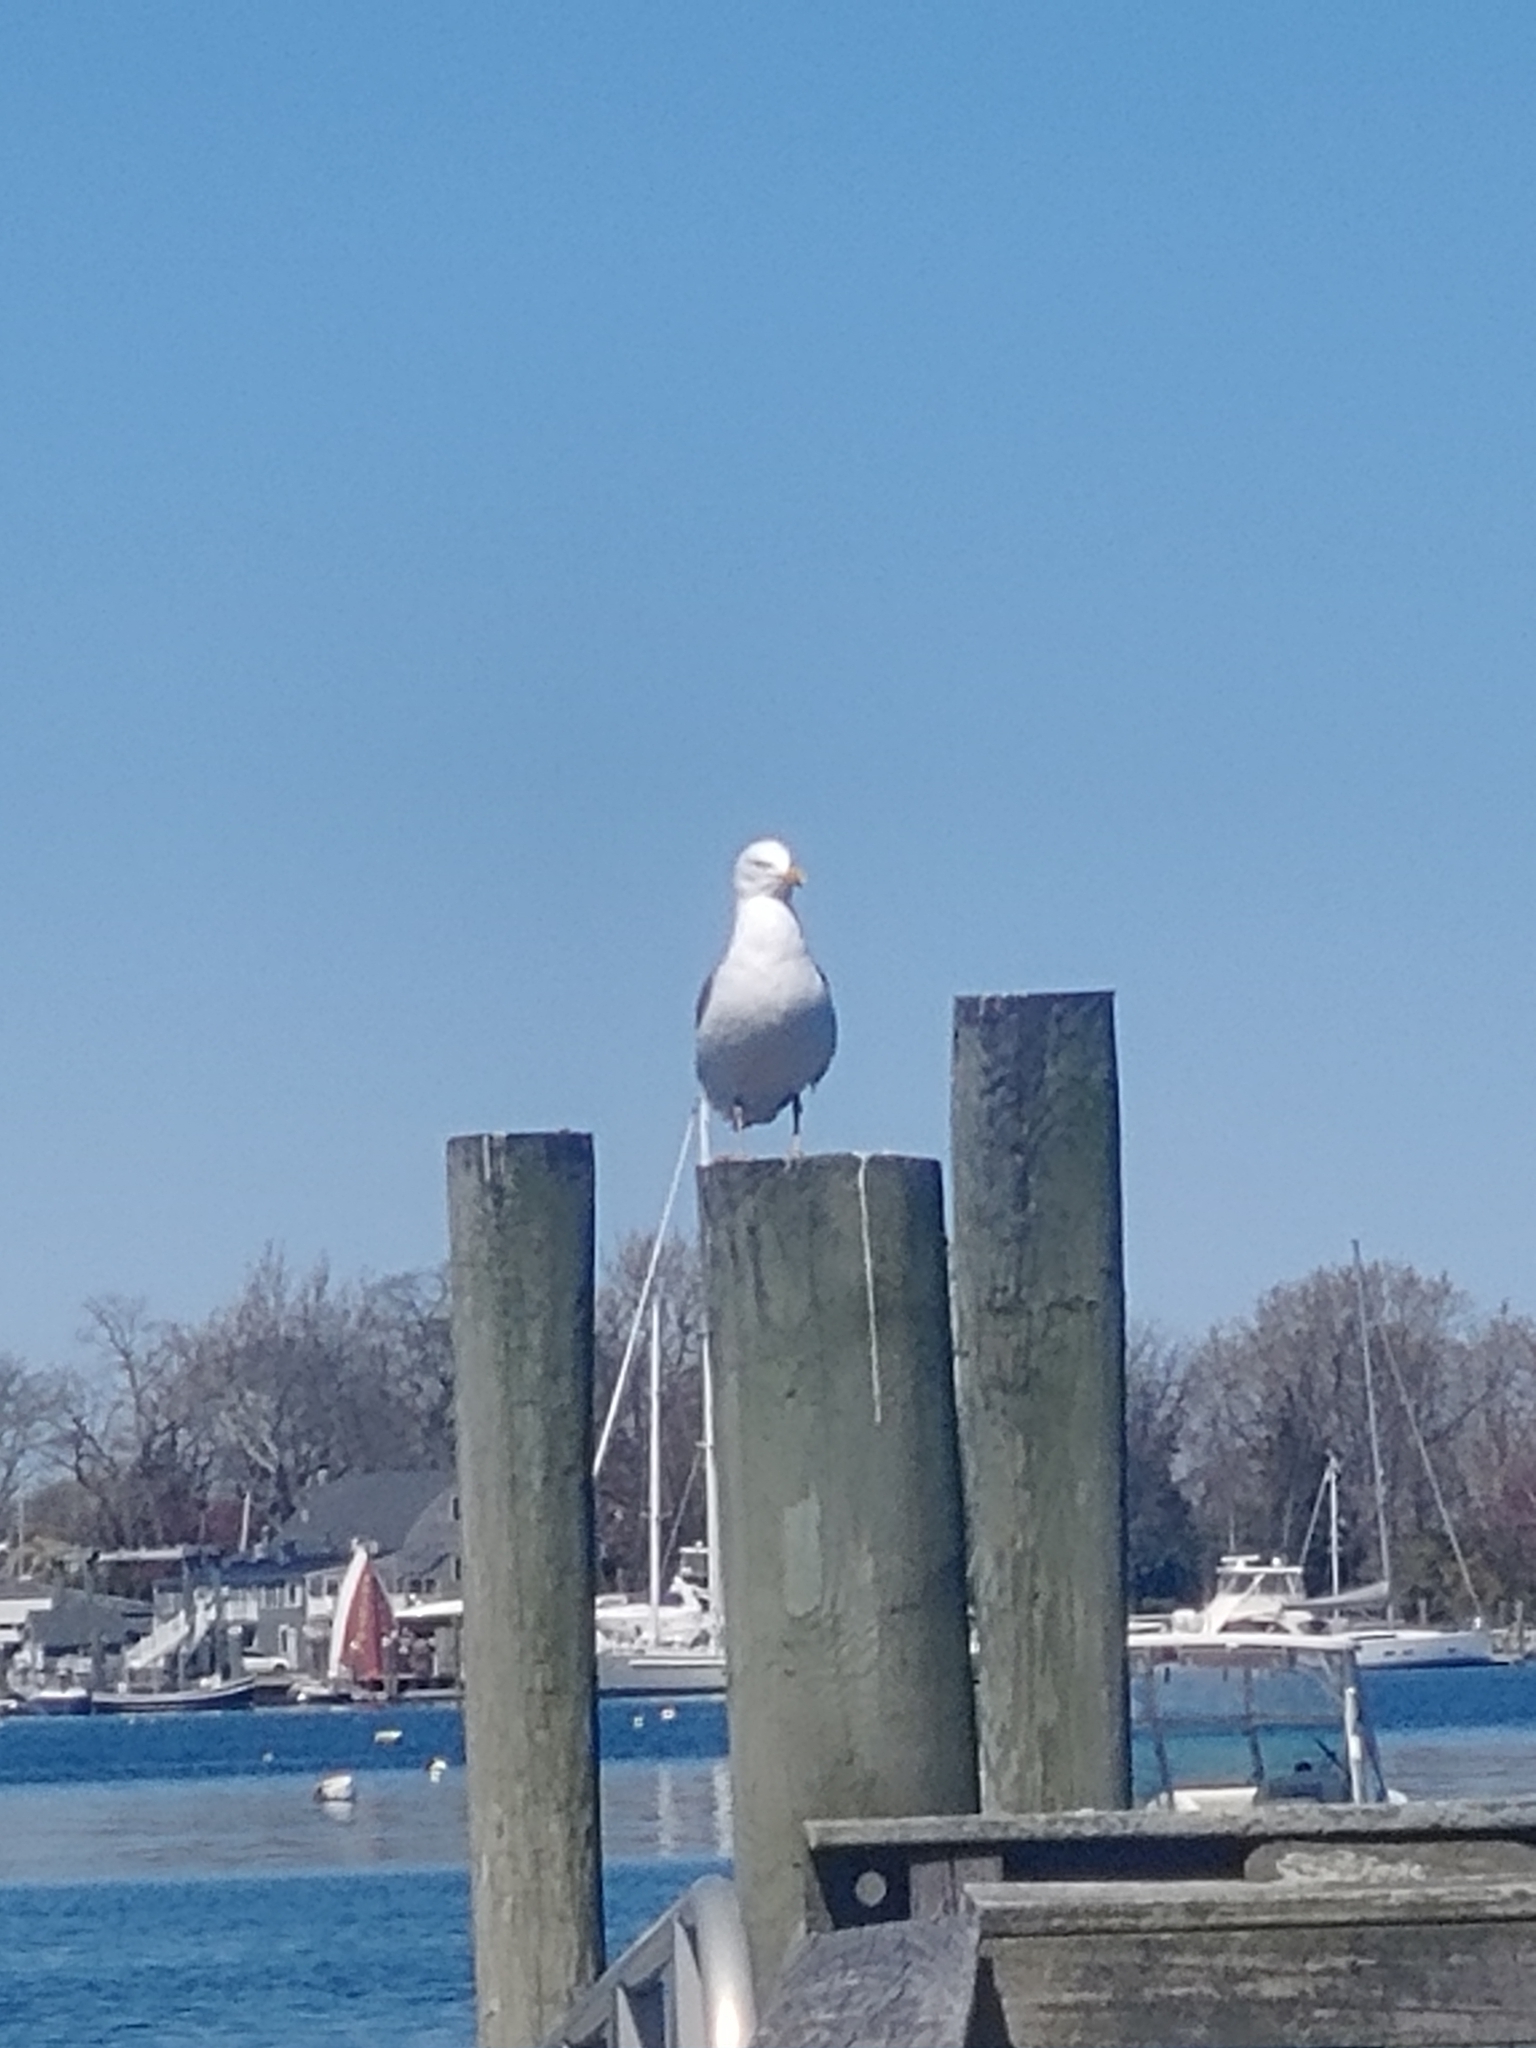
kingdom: Animalia
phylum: Chordata
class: Aves
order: Charadriiformes
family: Laridae
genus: Larus
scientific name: Larus argentatus
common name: Herring gull
